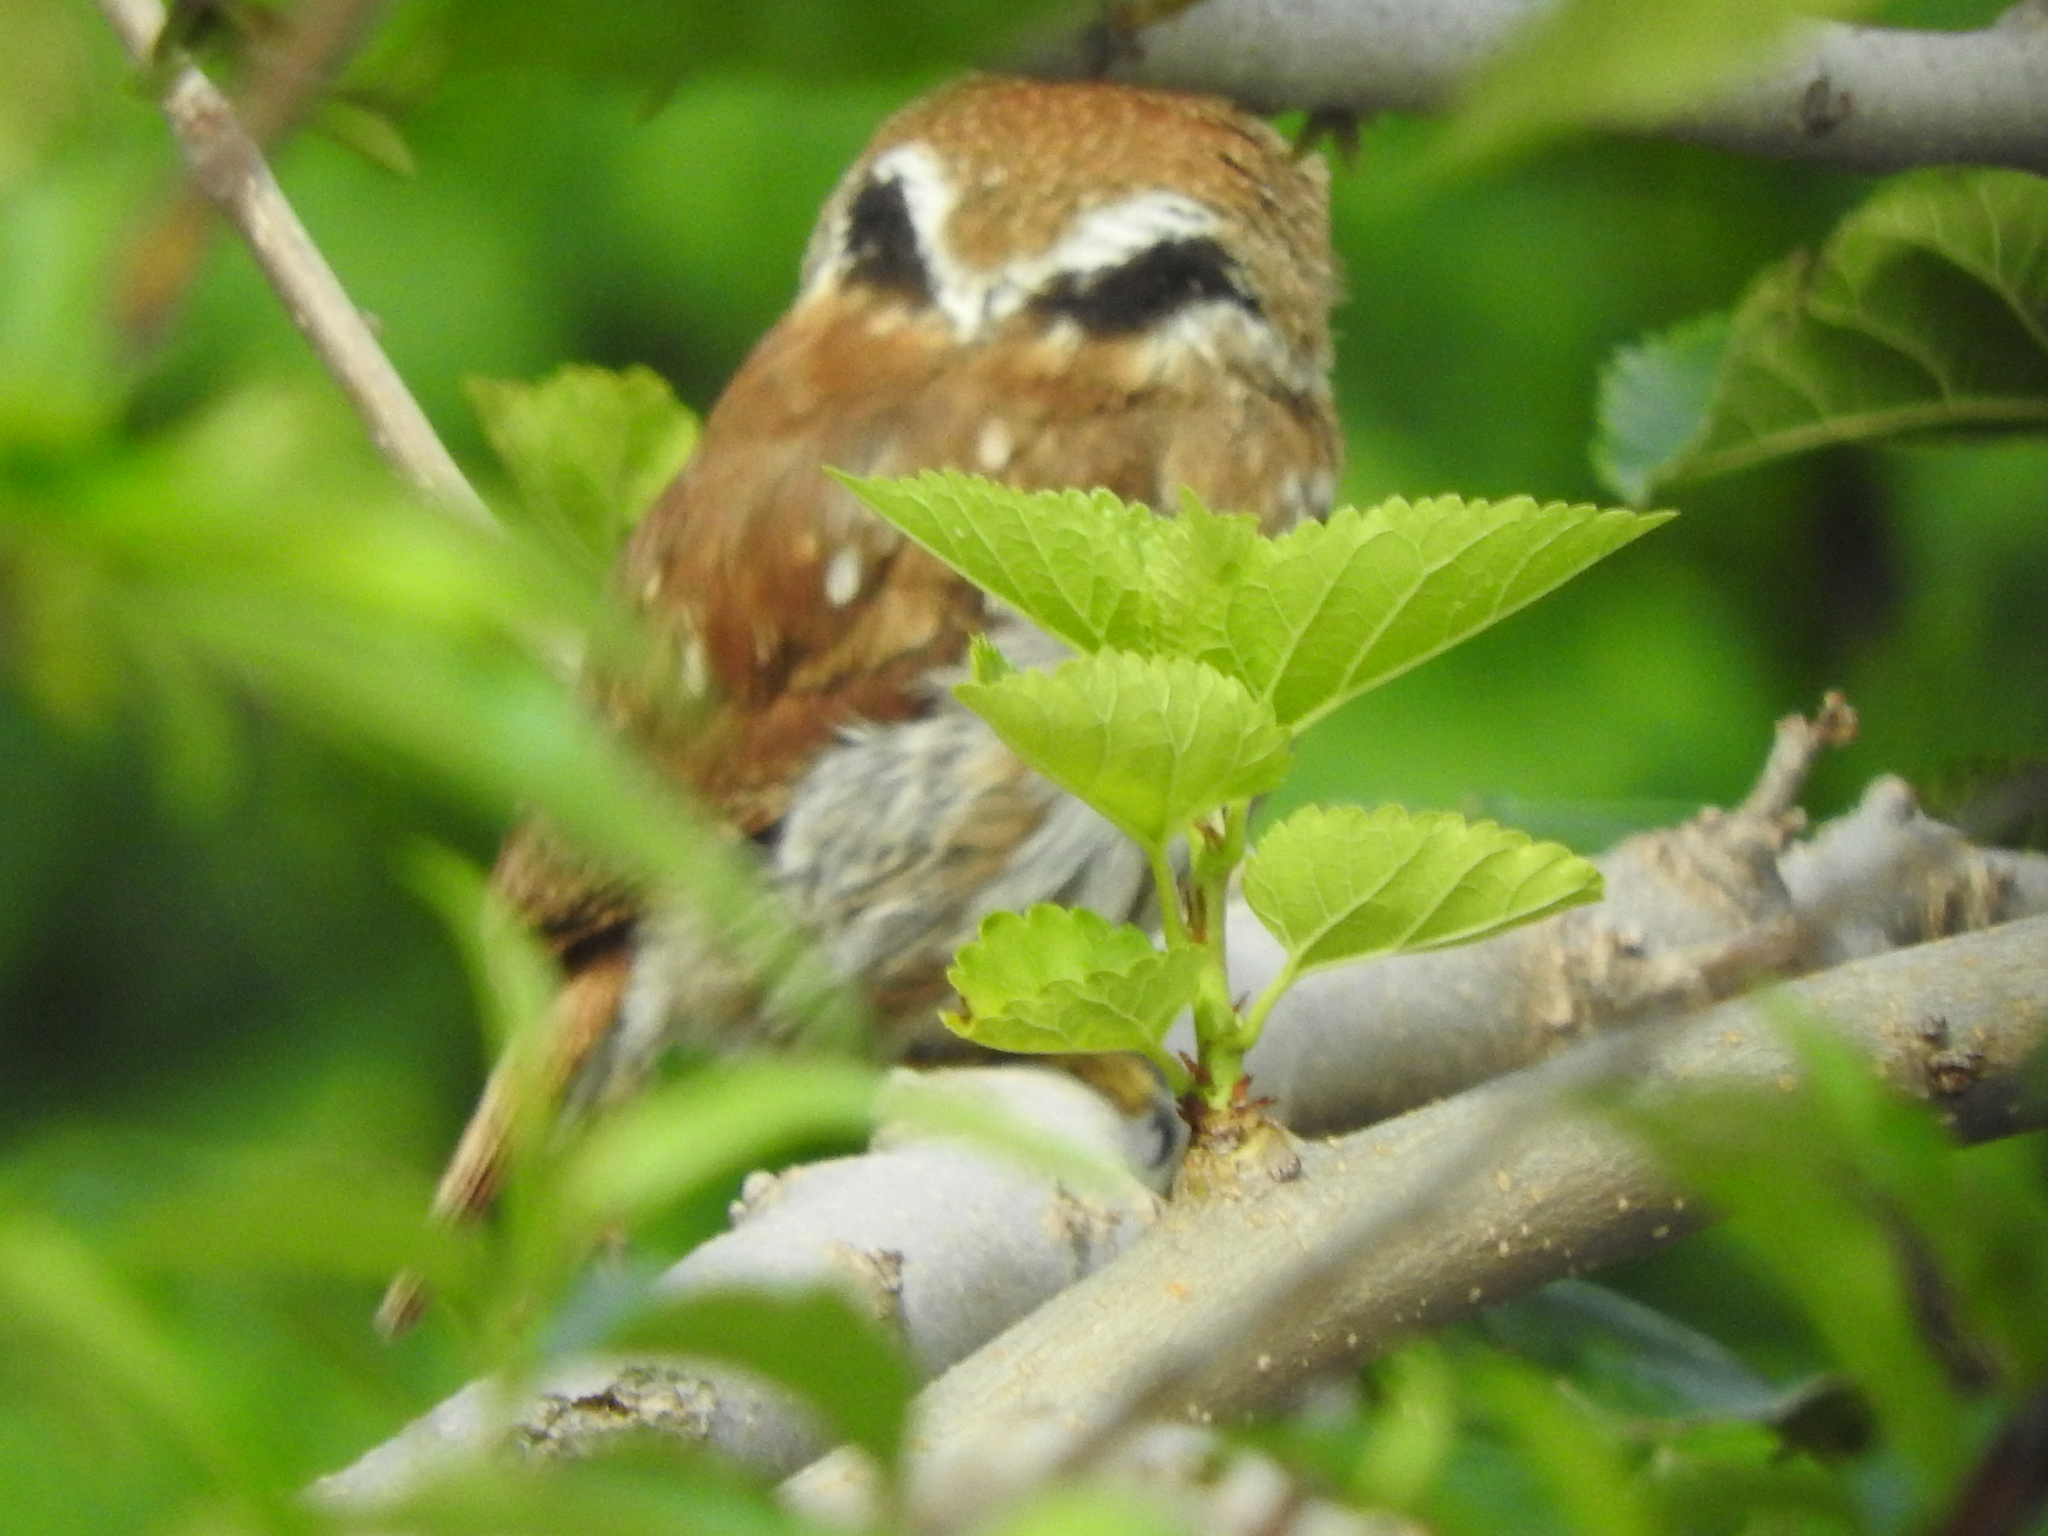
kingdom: Animalia
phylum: Chordata
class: Aves
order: Strigiformes
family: Strigidae
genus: Glaucidium
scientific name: Glaucidium brasilianum
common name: Ferruginous pygmy-owl
